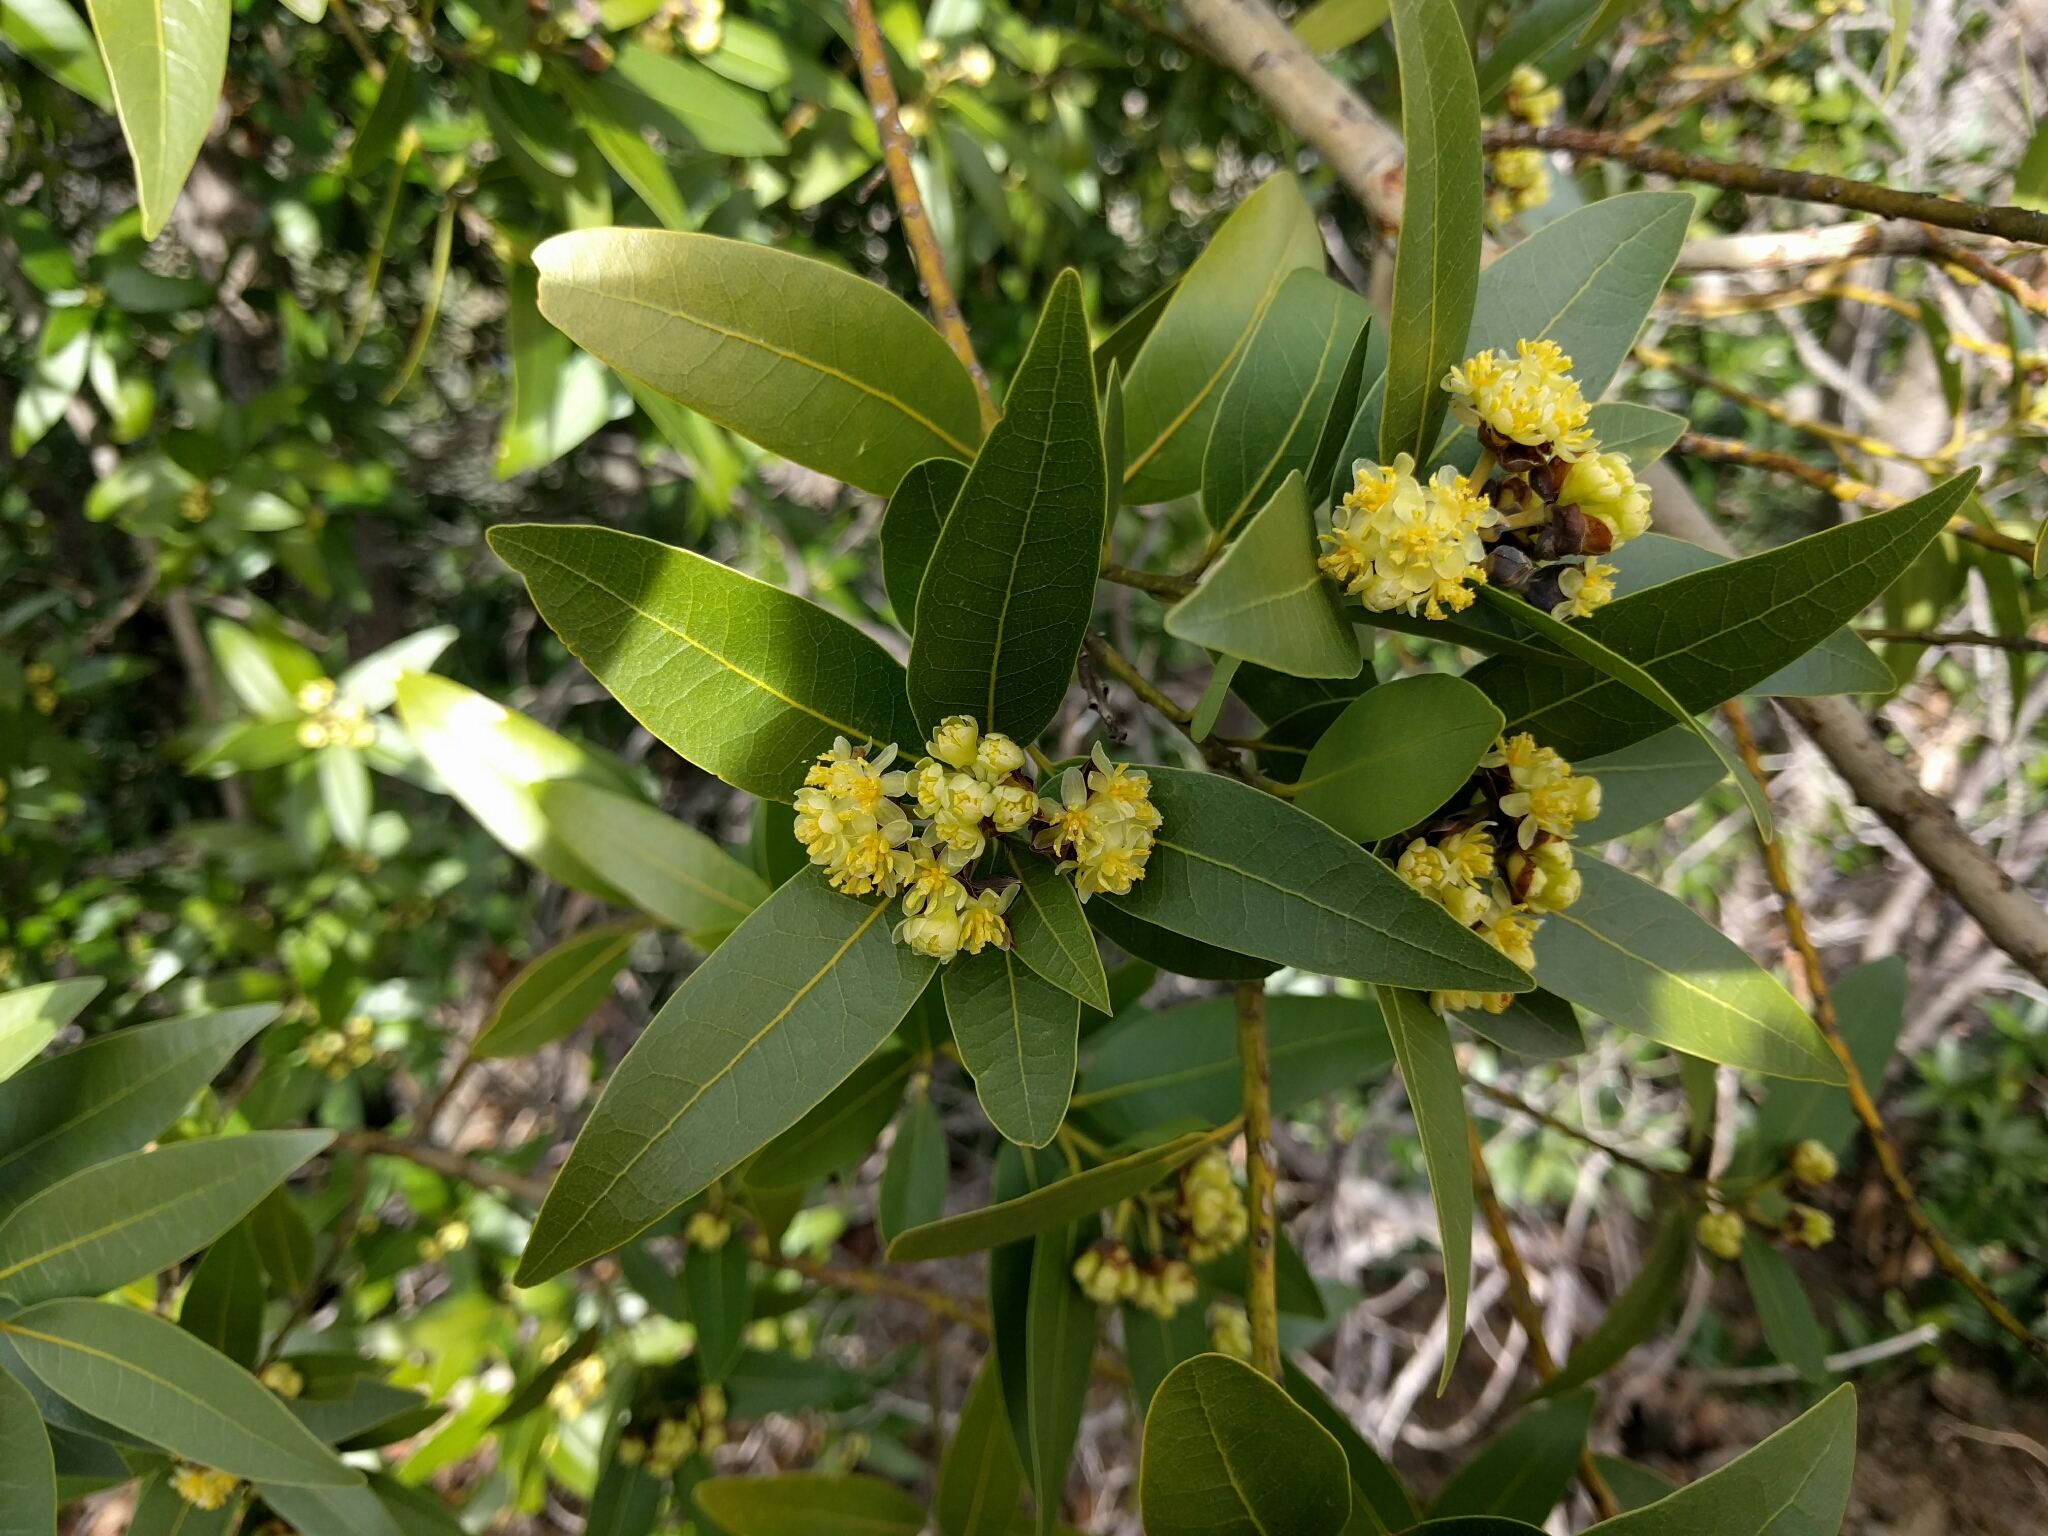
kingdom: Plantae
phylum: Tracheophyta
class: Magnoliopsida
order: Laurales
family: Lauraceae
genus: Umbellularia
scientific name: Umbellularia californica
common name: California bay
